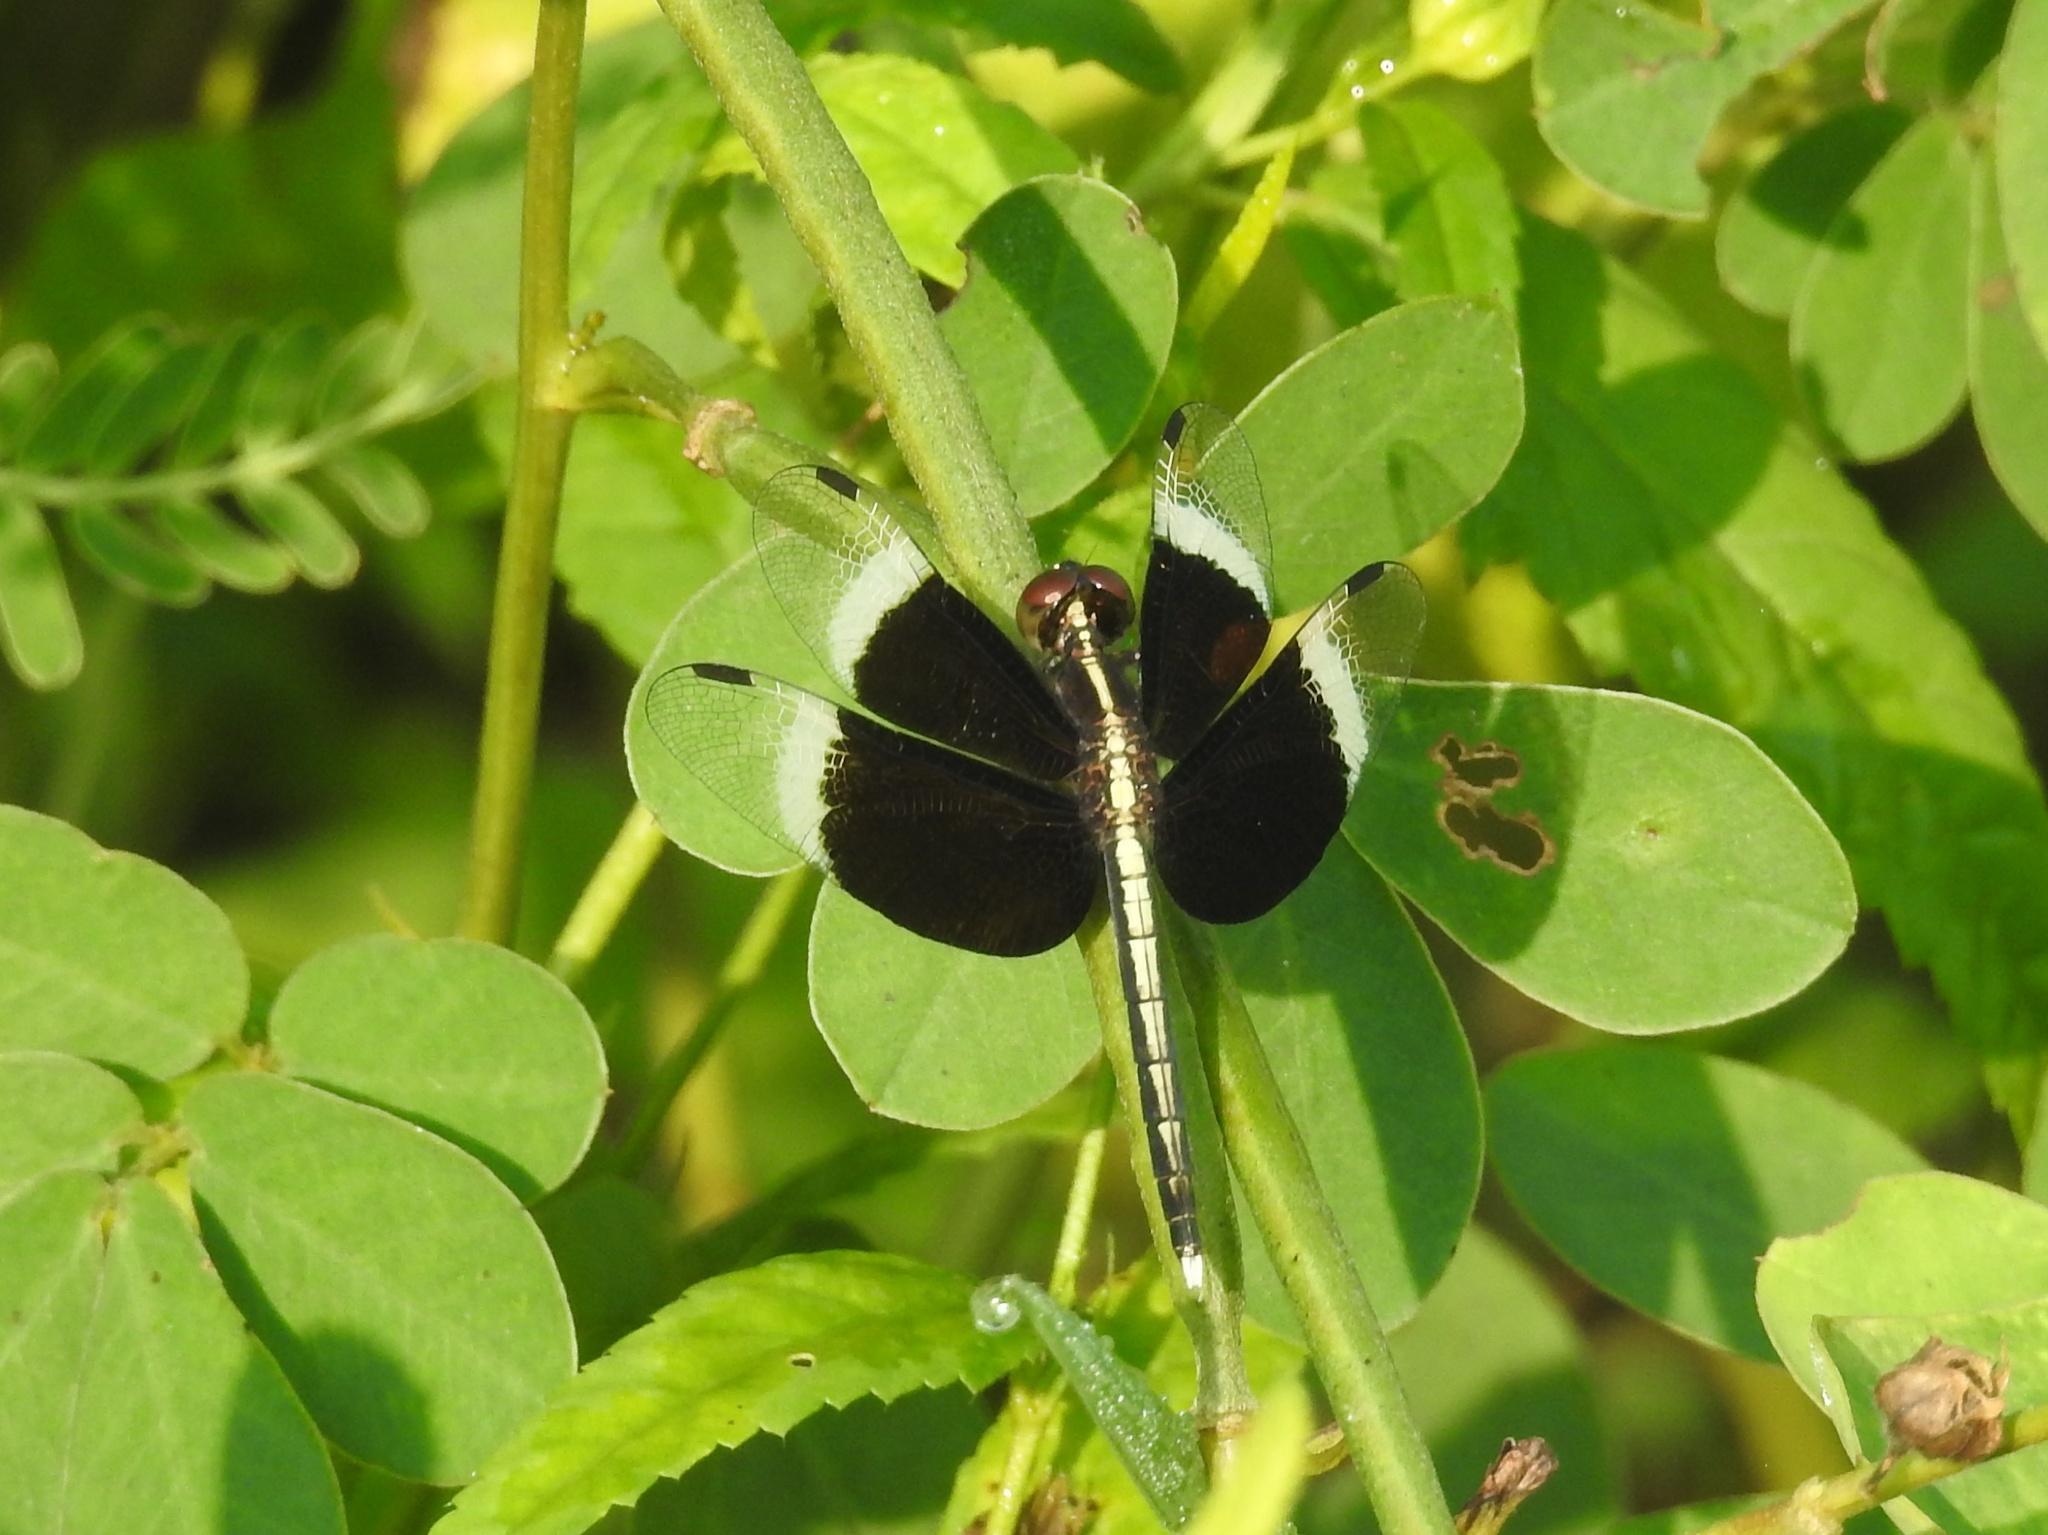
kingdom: Animalia
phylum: Arthropoda
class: Insecta
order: Odonata
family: Libellulidae
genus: Neurothemis
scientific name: Neurothemis tullia
